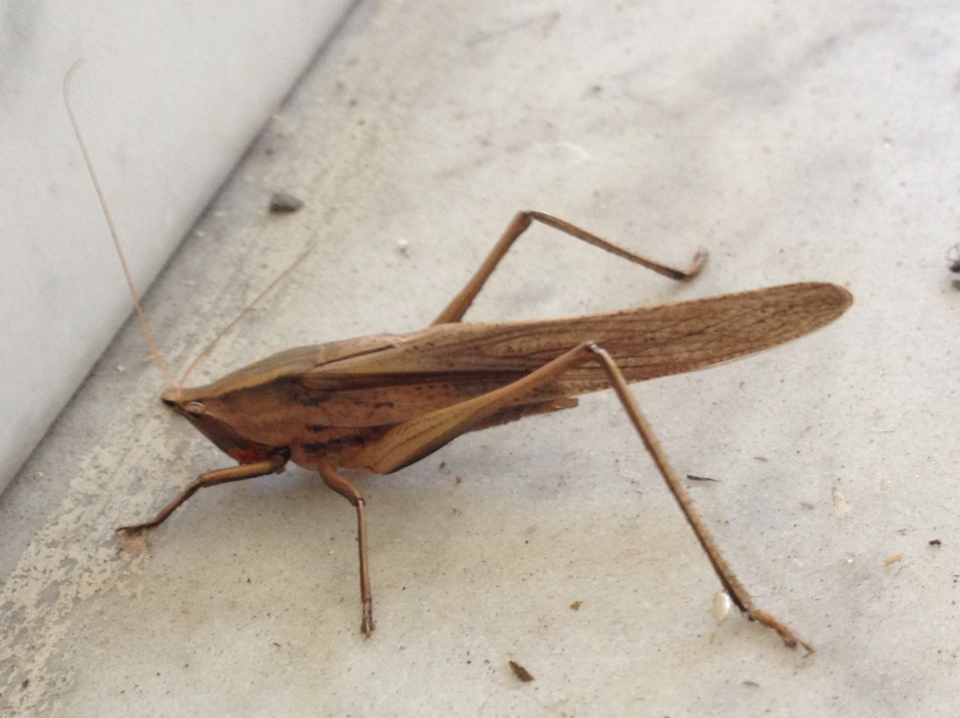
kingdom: Animalia
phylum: Arthropoda
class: Insecta
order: Orthoptera
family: Tettigoniidae
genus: Neoconocephalus
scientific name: Neoconocephalus triops
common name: Broad-tipped conehead
